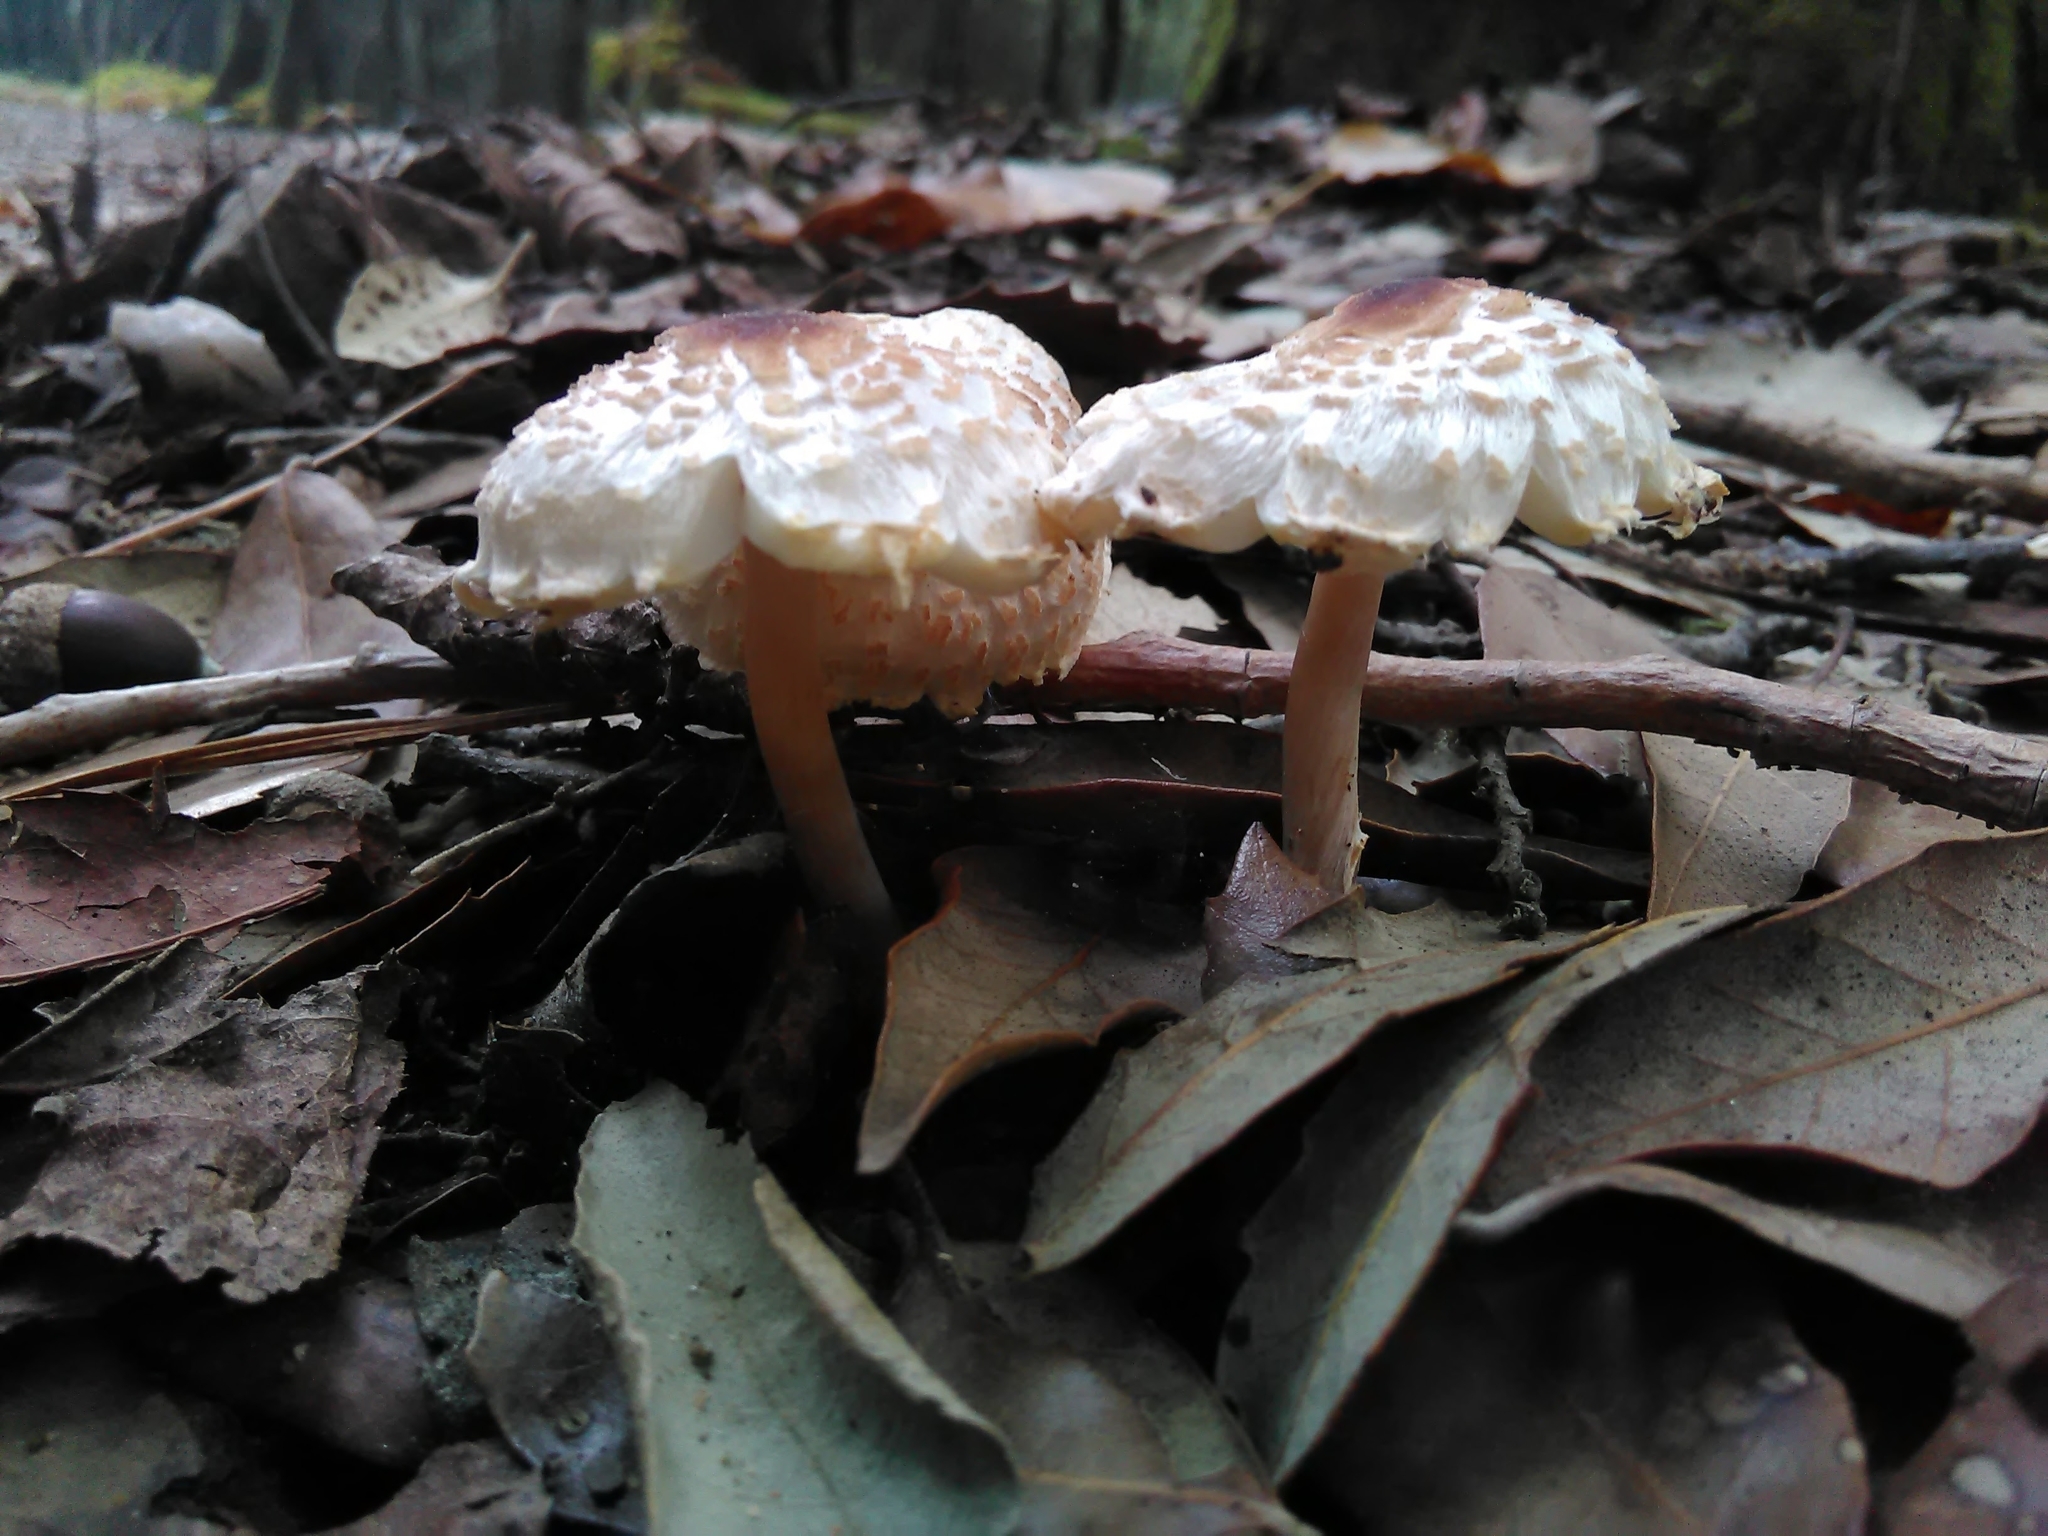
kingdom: Fungi
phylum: Basidiomycota
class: Agaricomycetes
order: Agaricales
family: Agaricaceae
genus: Lepiota
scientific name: Lepiota cristata
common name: Stinking dapperling
